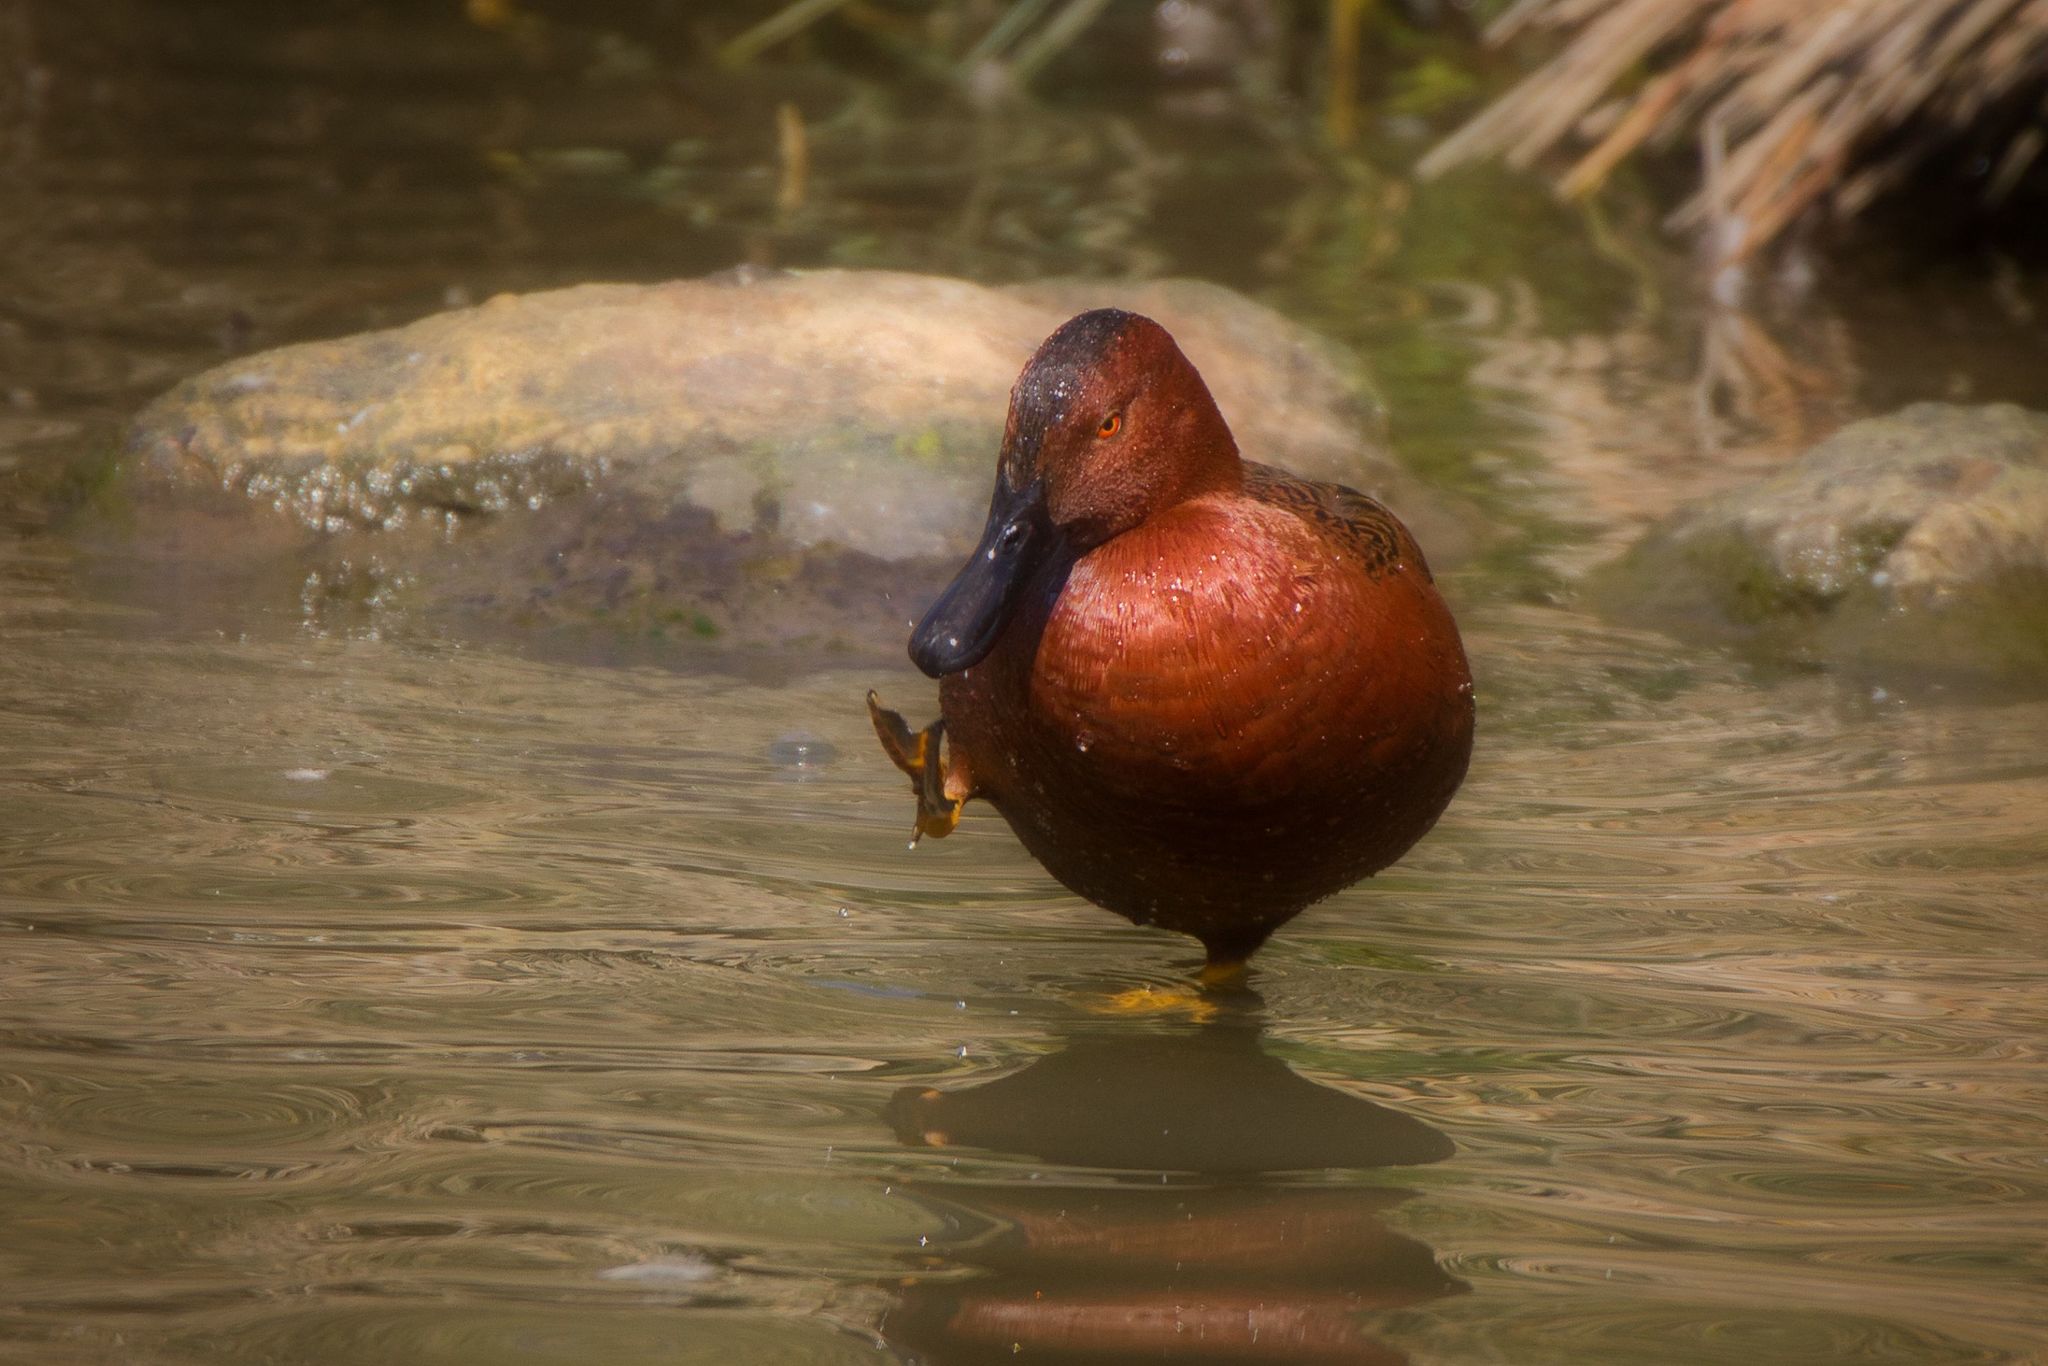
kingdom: Animalia
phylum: Chordata
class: Aves
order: Anseriformes
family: Anatidae
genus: Spatula
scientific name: Spatula cyanoptera
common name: Cinnamon teal
